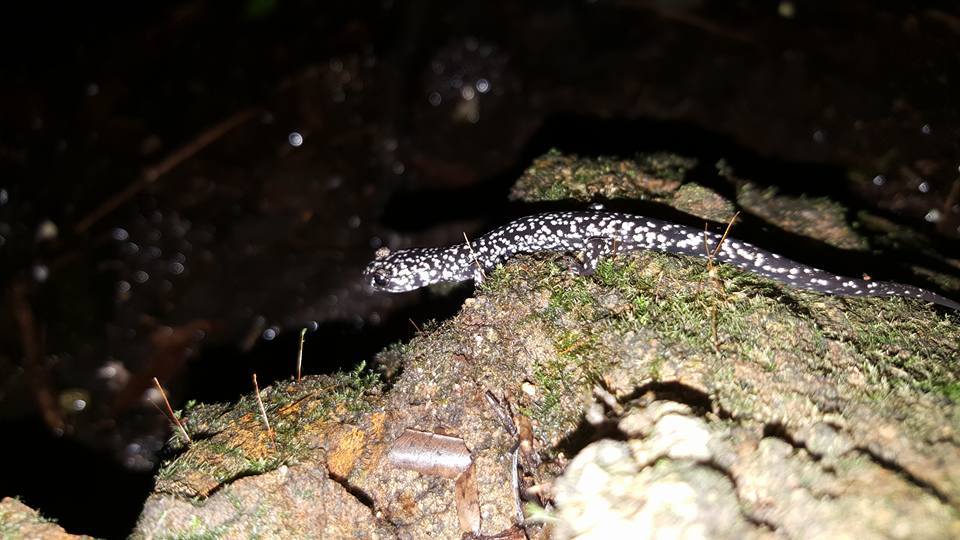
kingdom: Animalia
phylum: Chordata
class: Amphibia
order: Caudata
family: Plethodontidae
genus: Plethodon
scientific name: Plethodon glutinosus
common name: Northern slimy salamander
